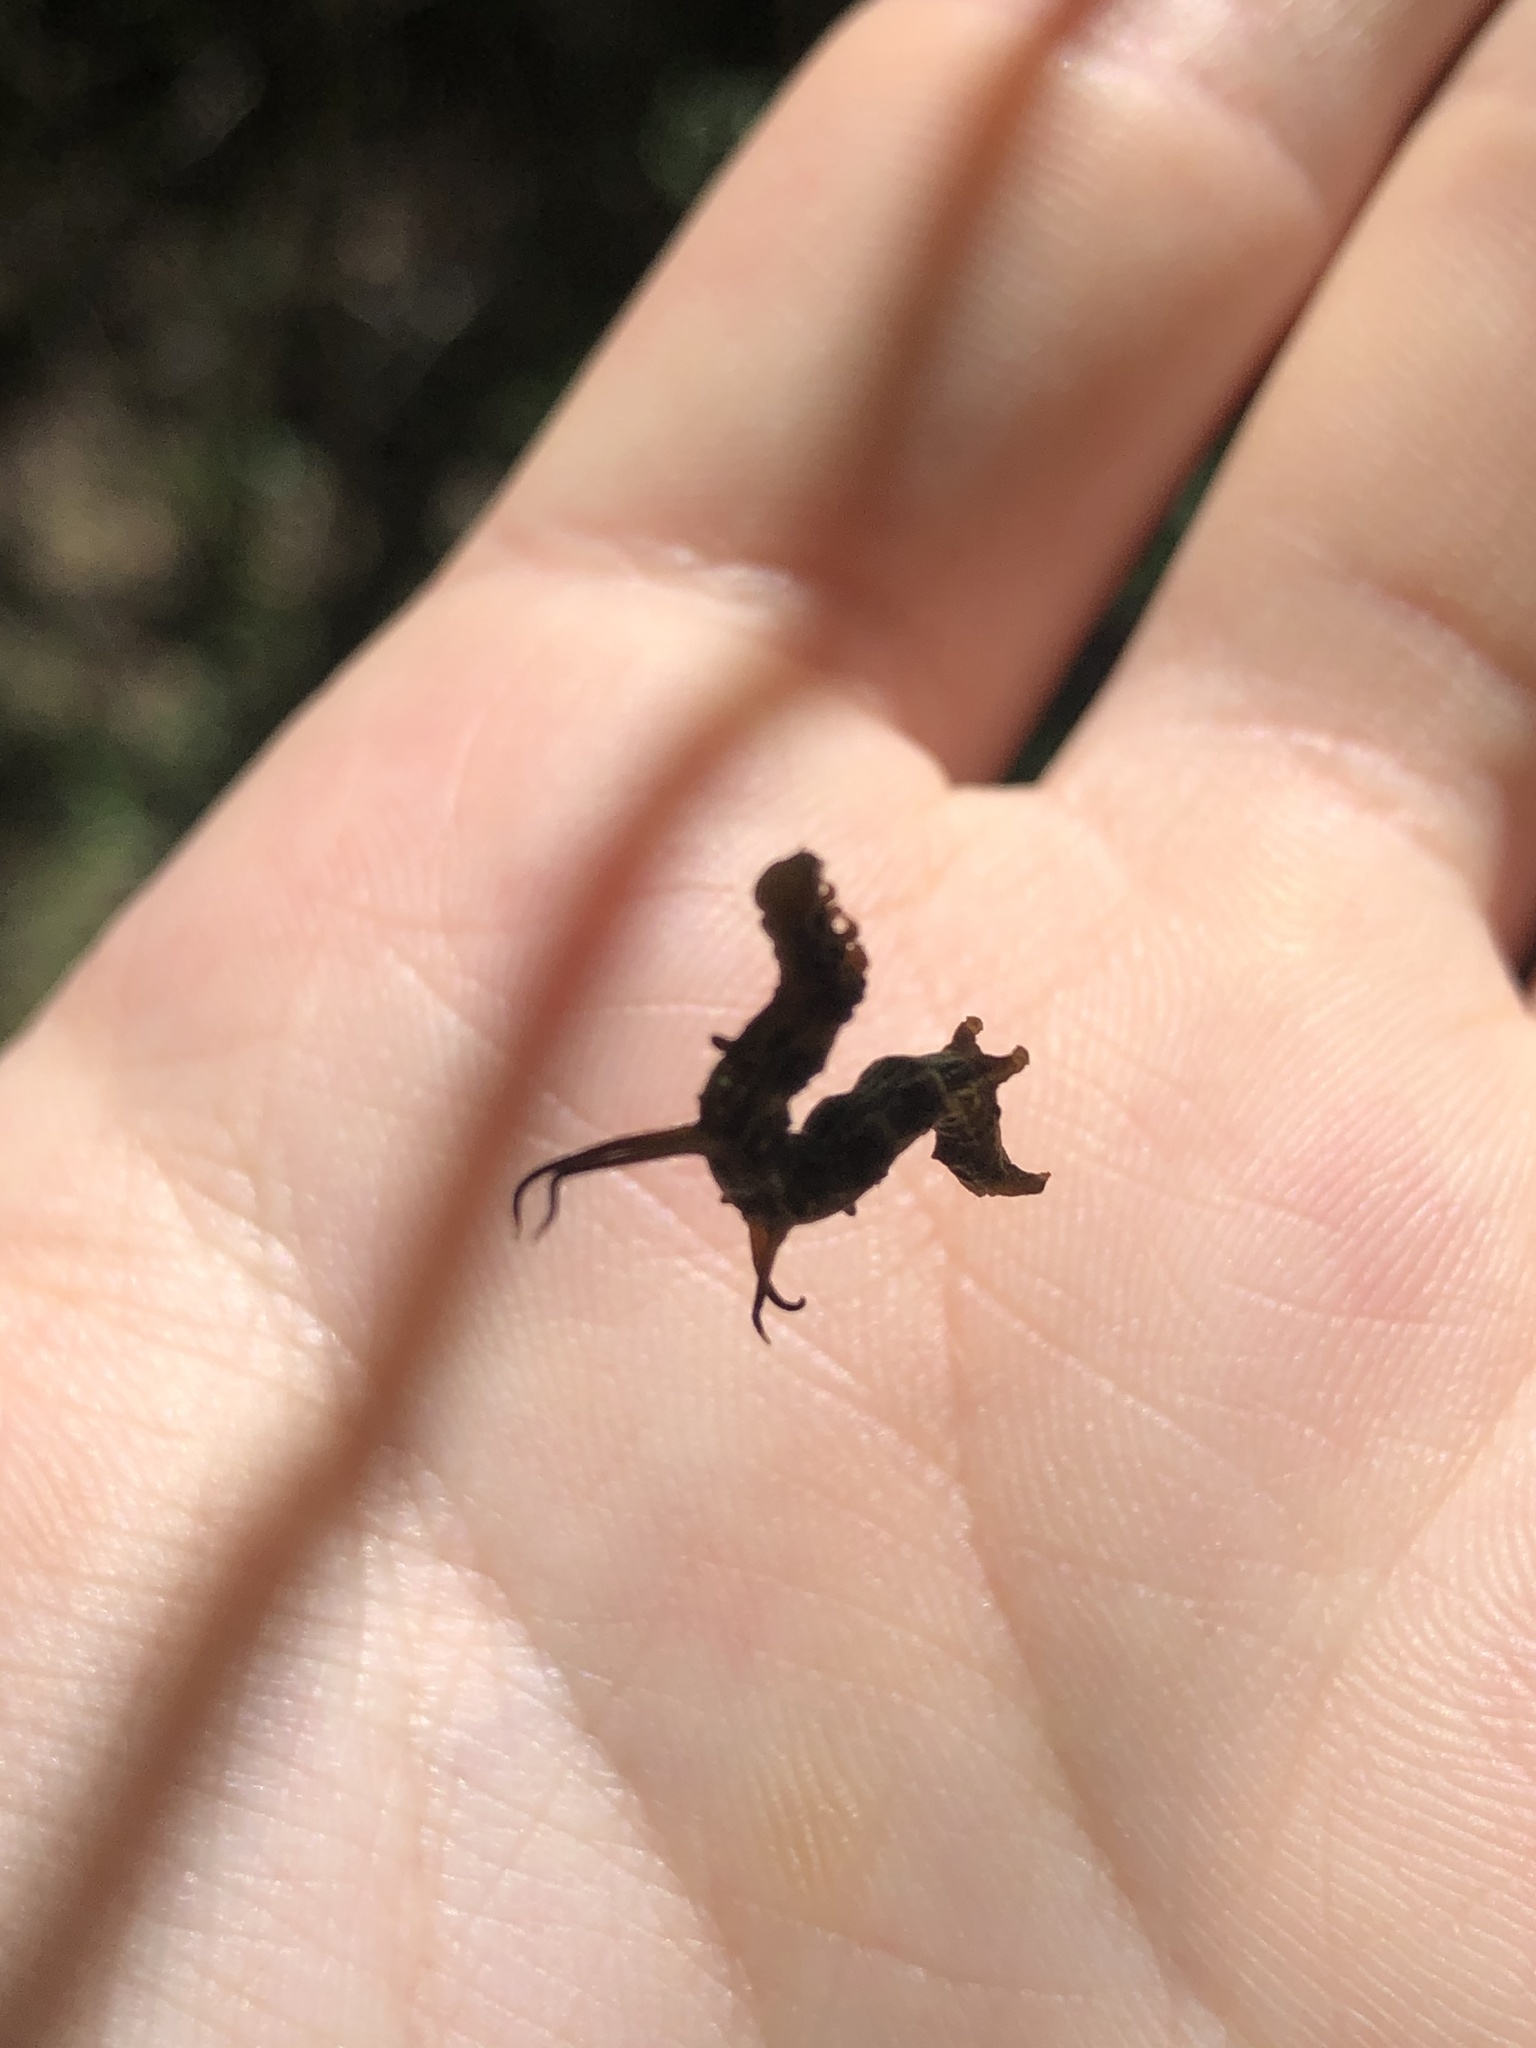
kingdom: Animalia
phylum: Arthropoda
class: Insecta
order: Lepidoptera
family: Geometridae
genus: Nematocampa
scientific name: Nematocampa resistaria
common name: Horned spanworm moth
